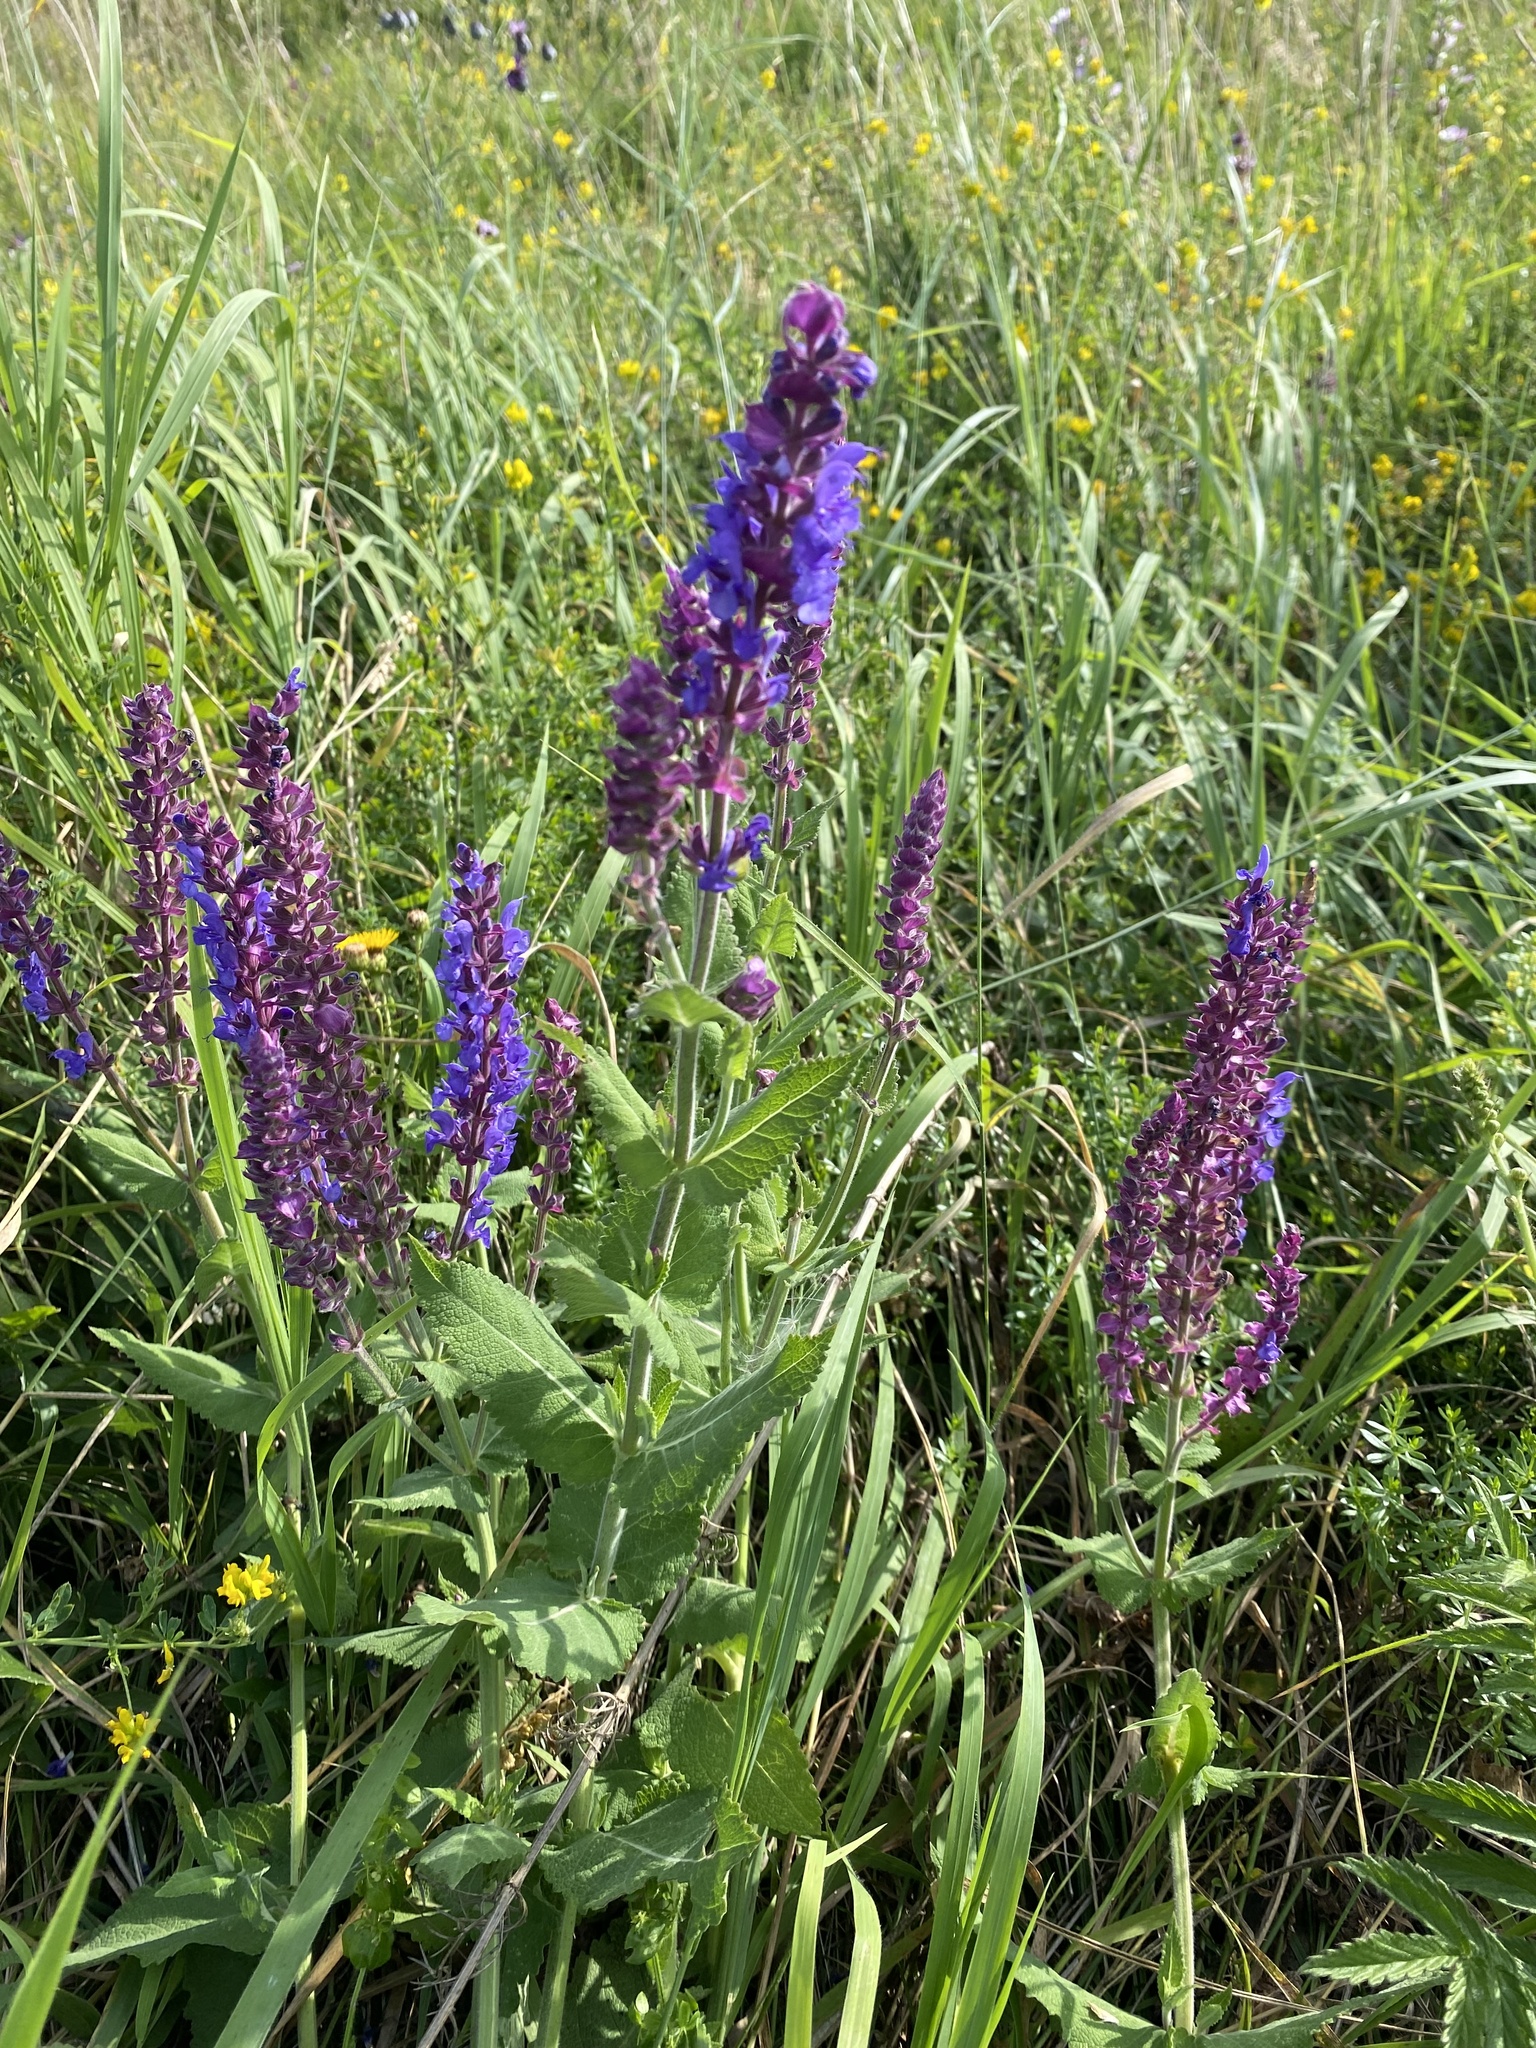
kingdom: Plantae
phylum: Tracheophyta
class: Magnoliopsida
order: Lamiales
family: Lamiaceae
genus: Salvia
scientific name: Salvia nemorosa
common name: Balkan clary
